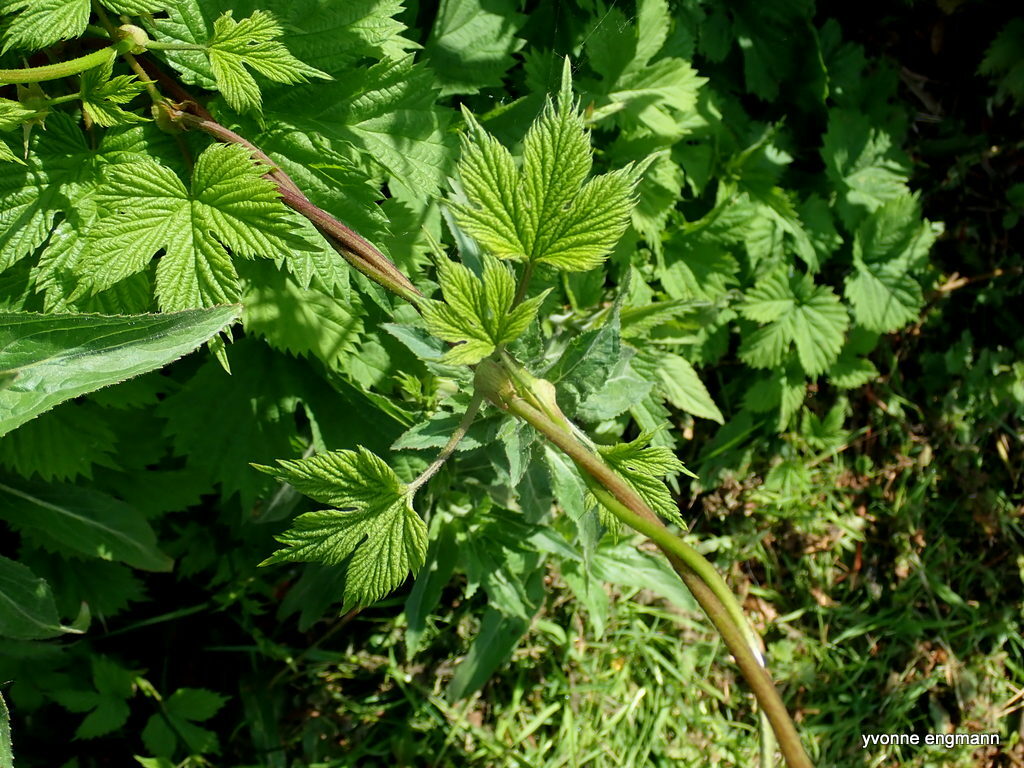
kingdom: Plantae
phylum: Tracheophyta
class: Magnoliopsida
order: Rosales
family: Cannabaceae
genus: Humulus
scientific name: Humulus lupulus
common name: Hop
